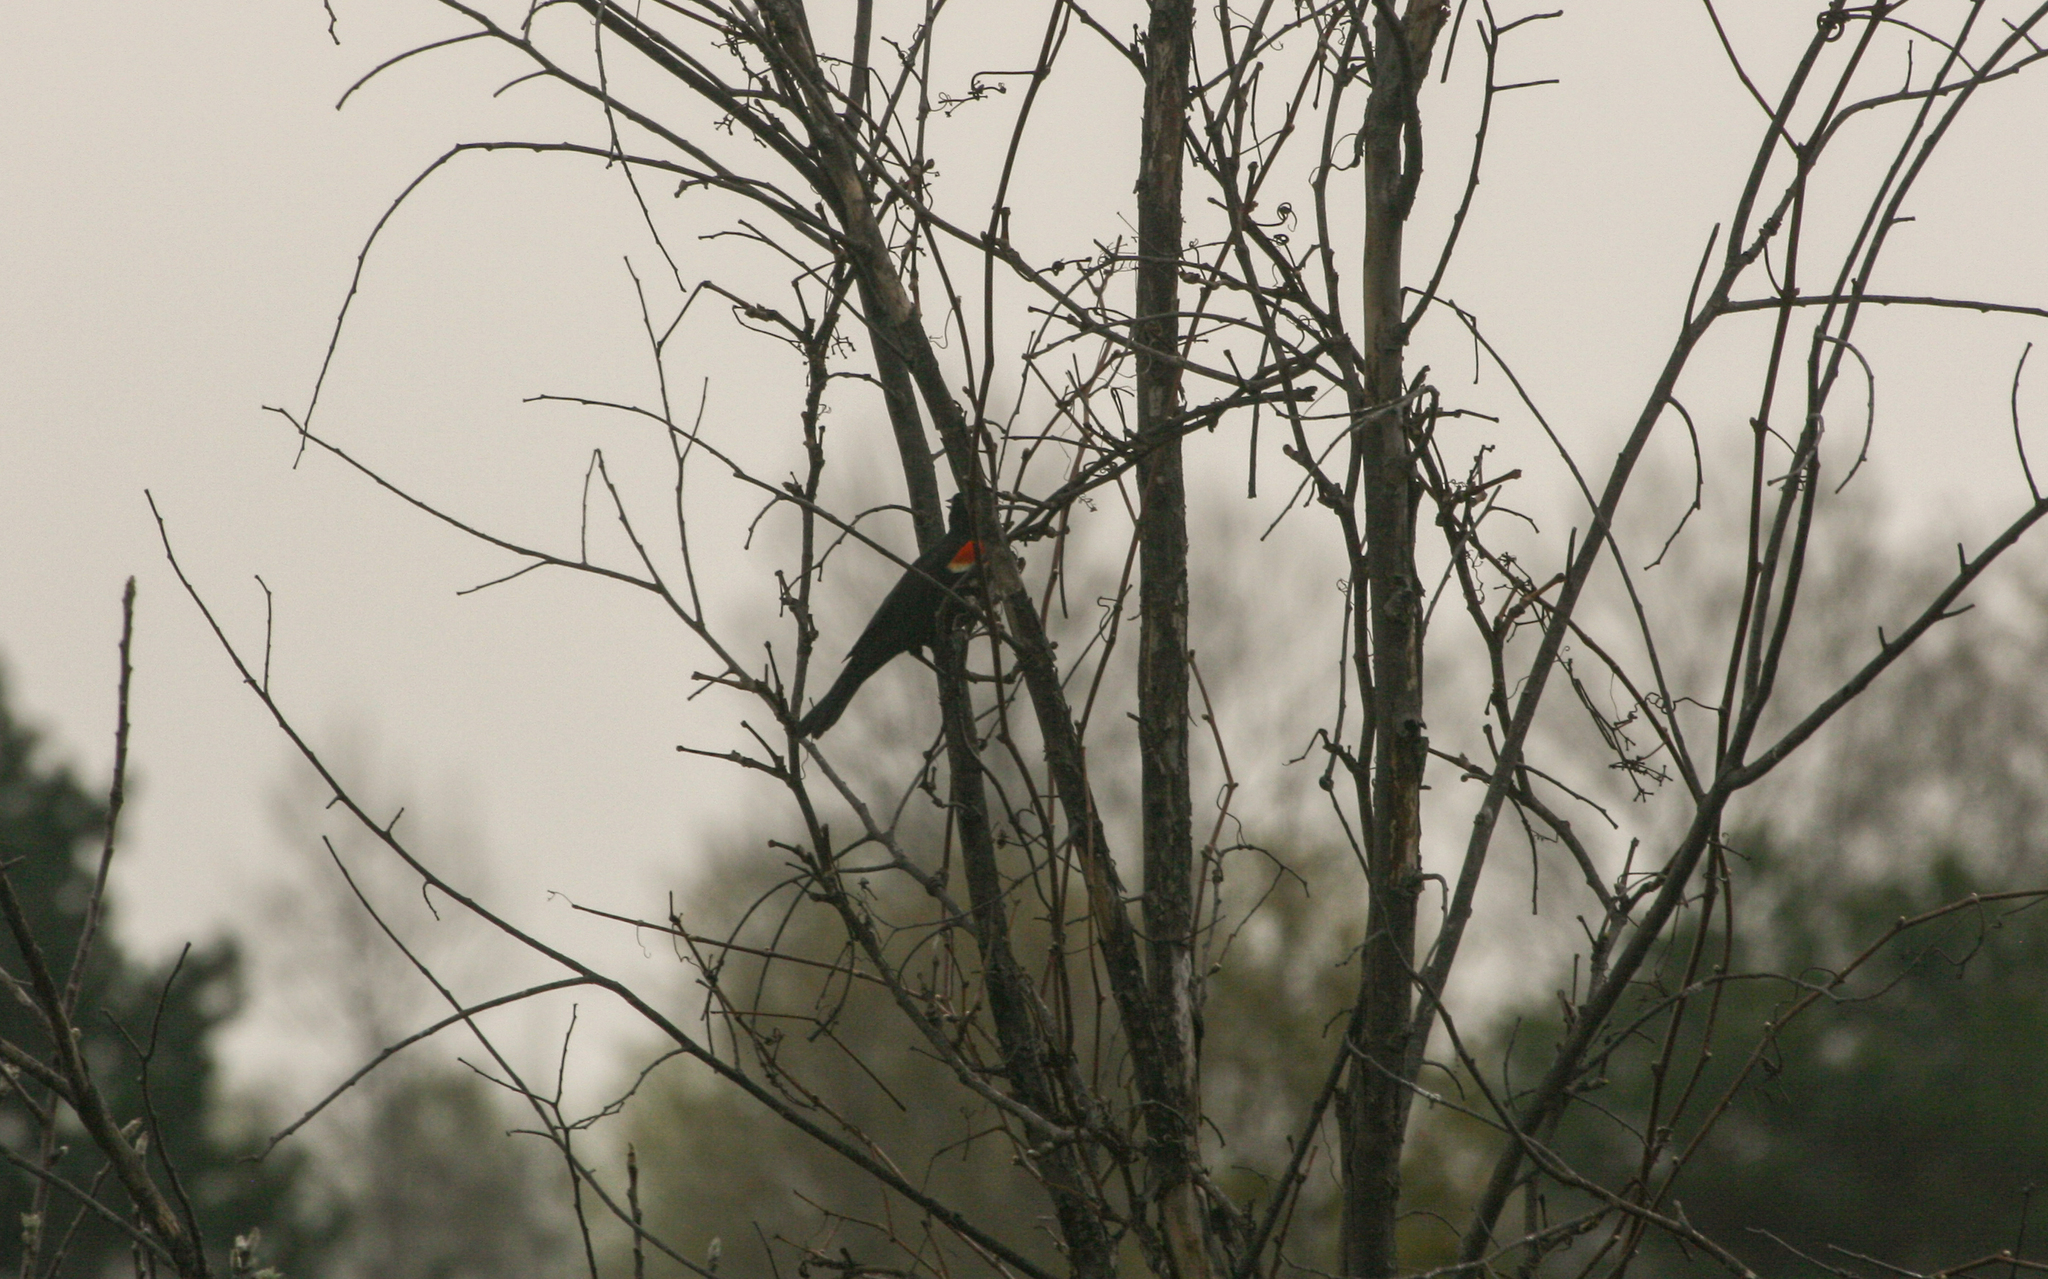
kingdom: Animalia
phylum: Chordata
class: Aves
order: Passeriformes
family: Icteridae
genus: Agelaius
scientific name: Agelaius phoeniceus
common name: Red-winged blackbird
